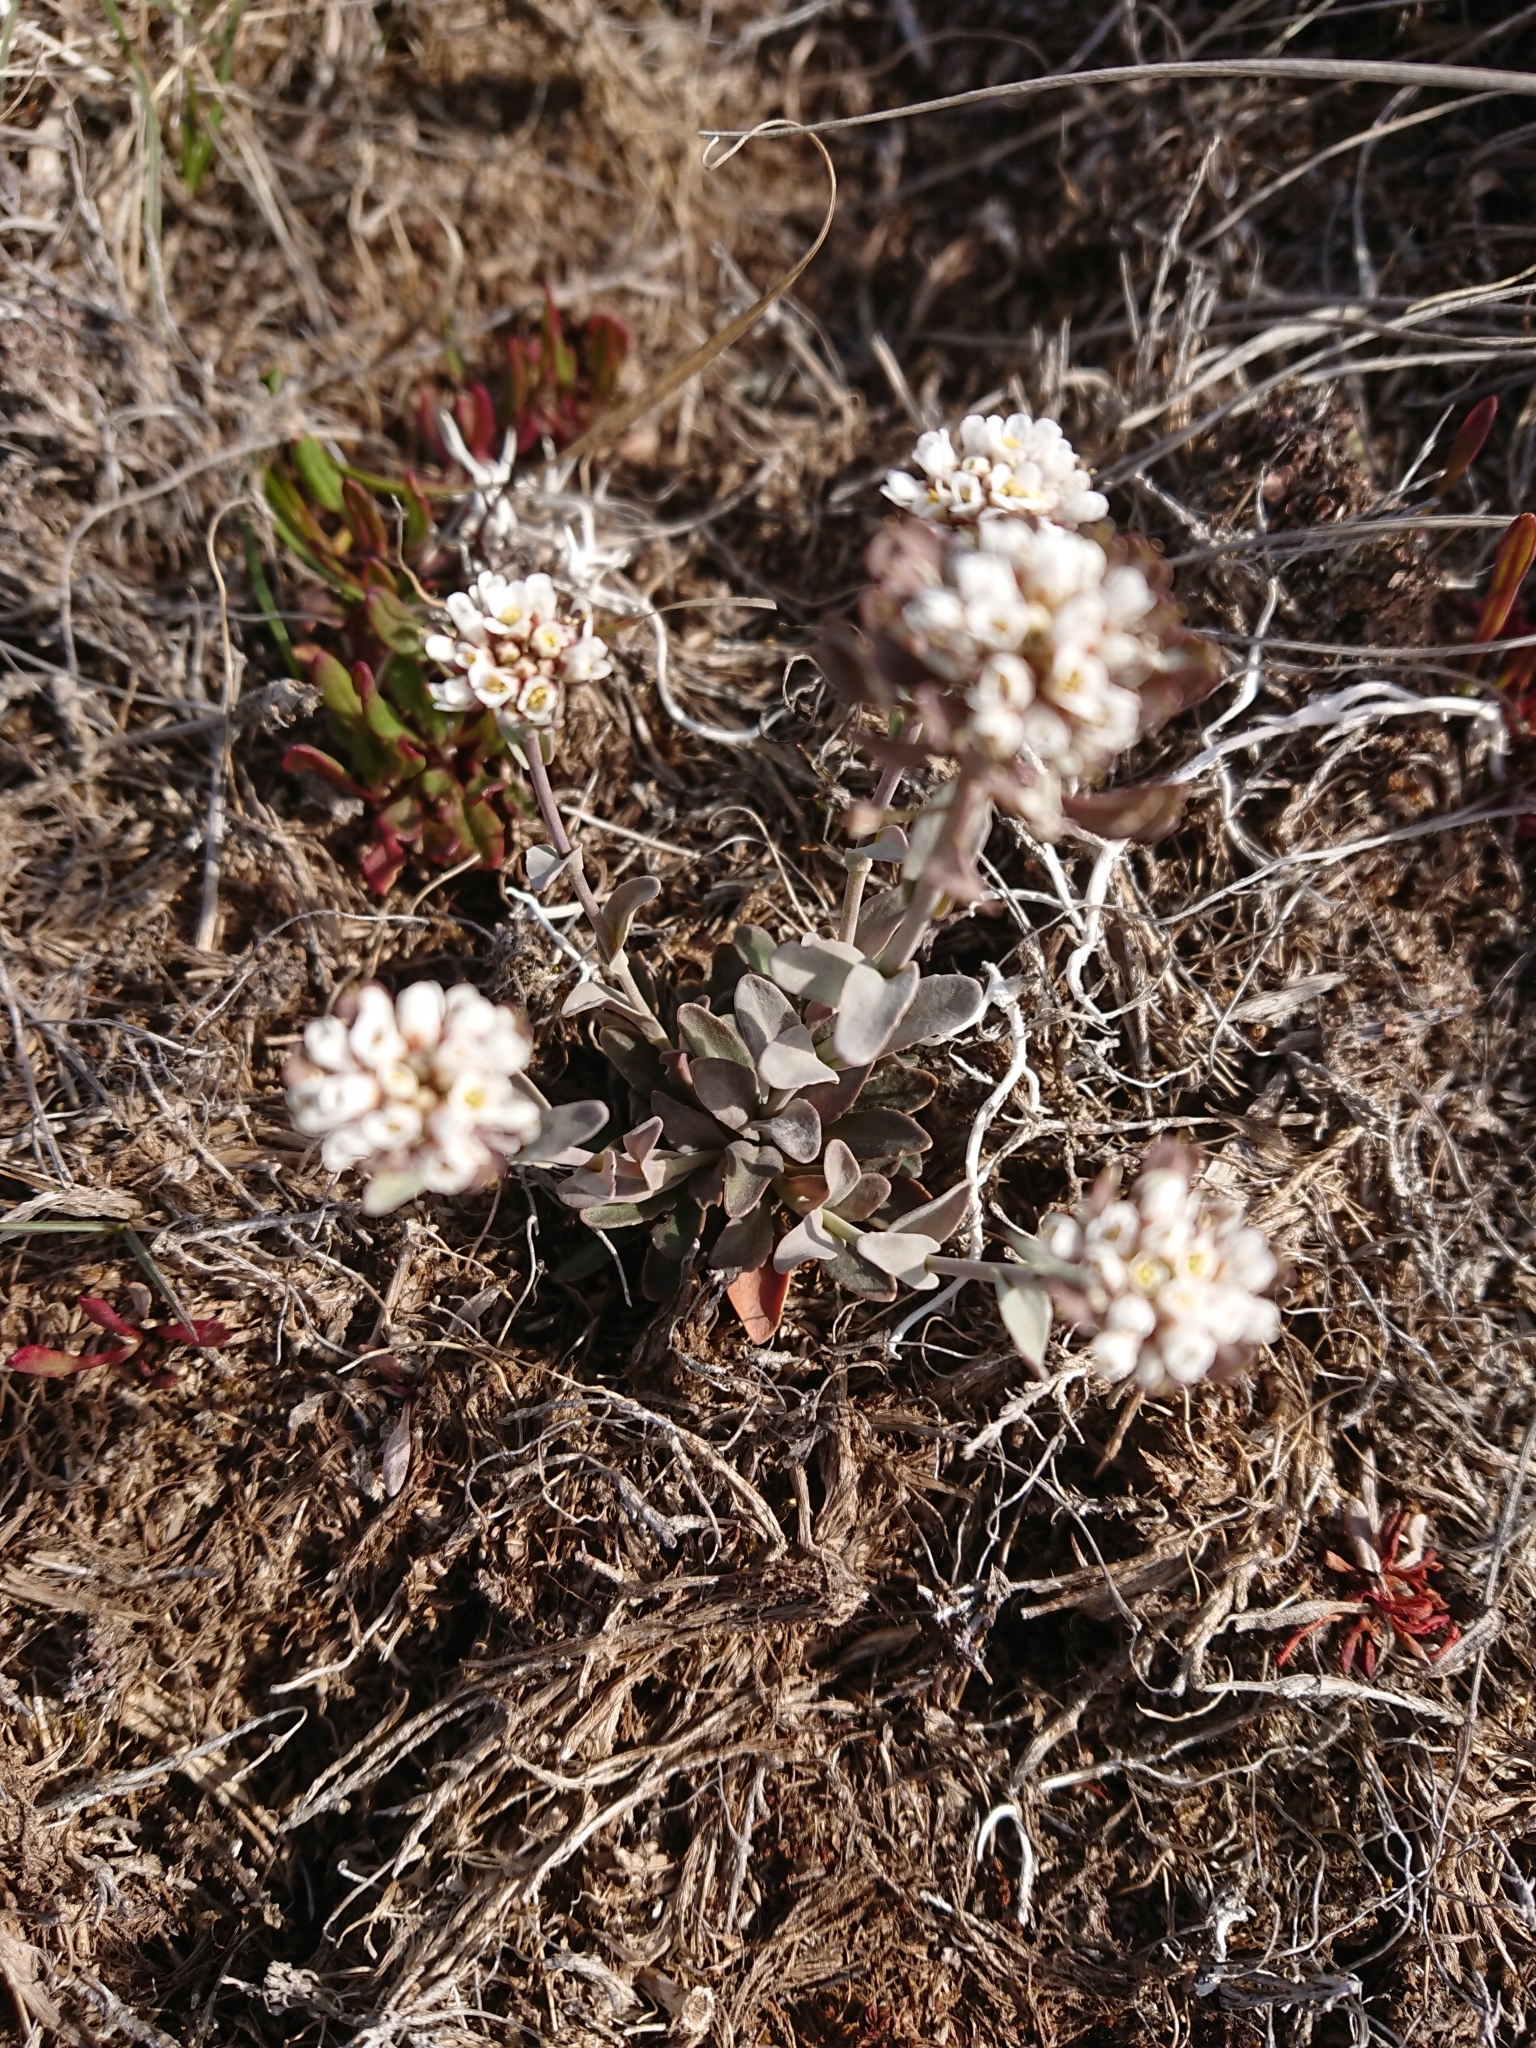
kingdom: Plantae
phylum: Tracheophyta
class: Magnoliopsida
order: Brassicales
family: Brassicaceae
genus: Noccaea
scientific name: Noccaea magellanica
